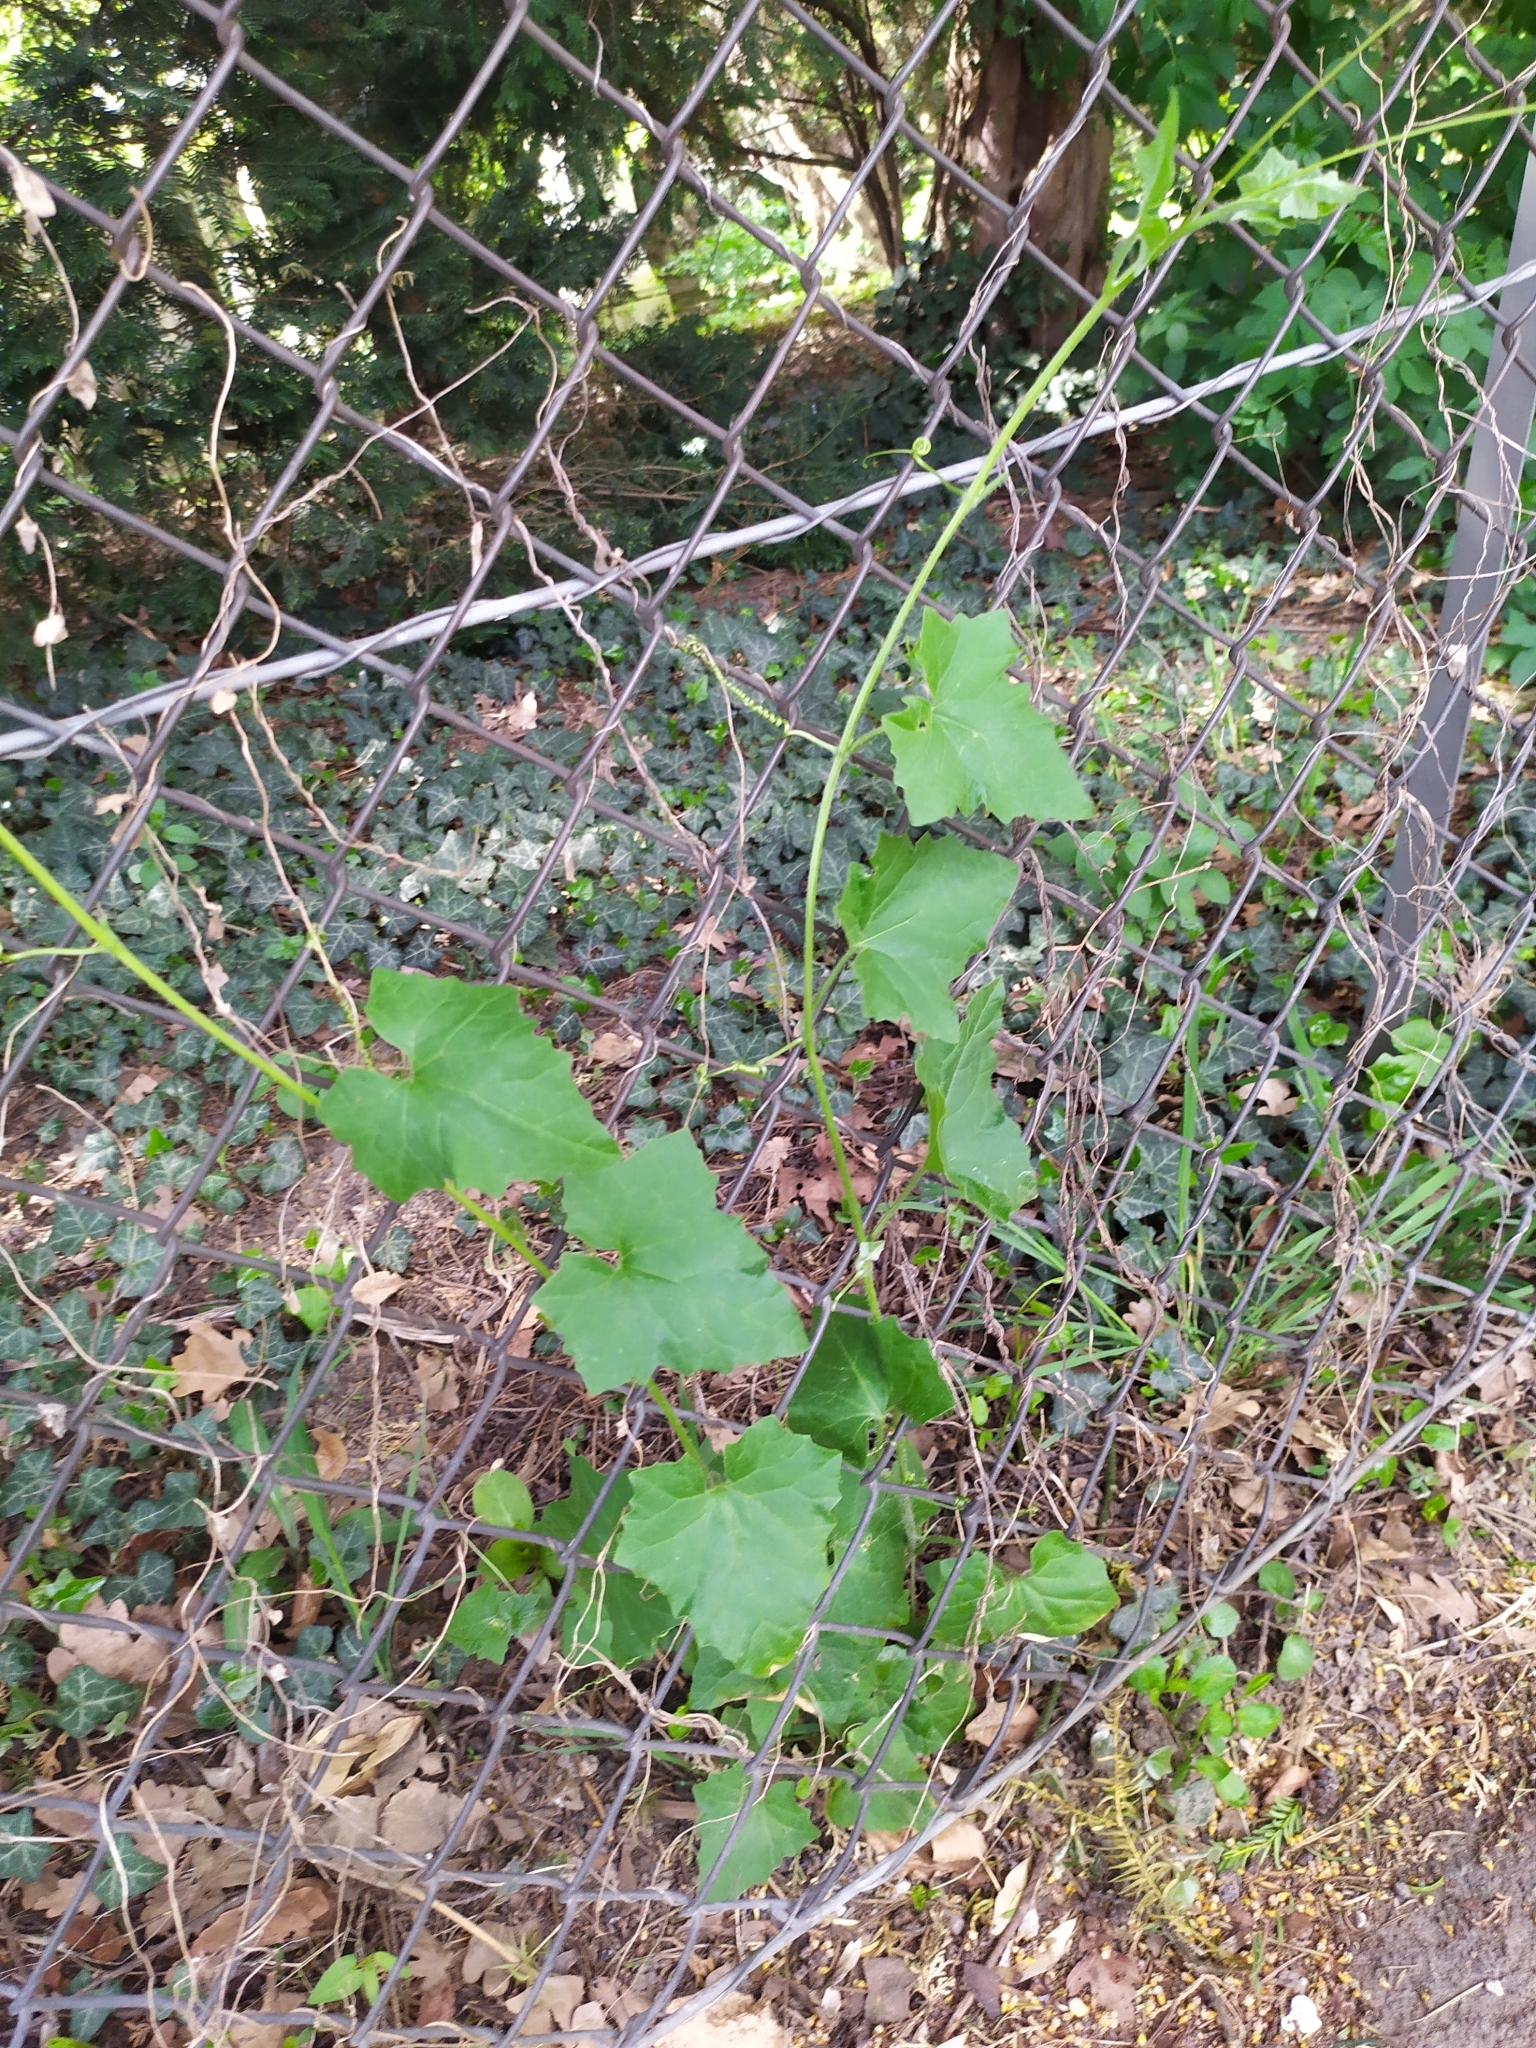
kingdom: Plantae
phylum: Tracheophyta
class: Magnoliopsida
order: Cucurbitales
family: Cucurbitaceae
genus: Bryonia
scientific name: Bryonia dioica
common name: White bryony
